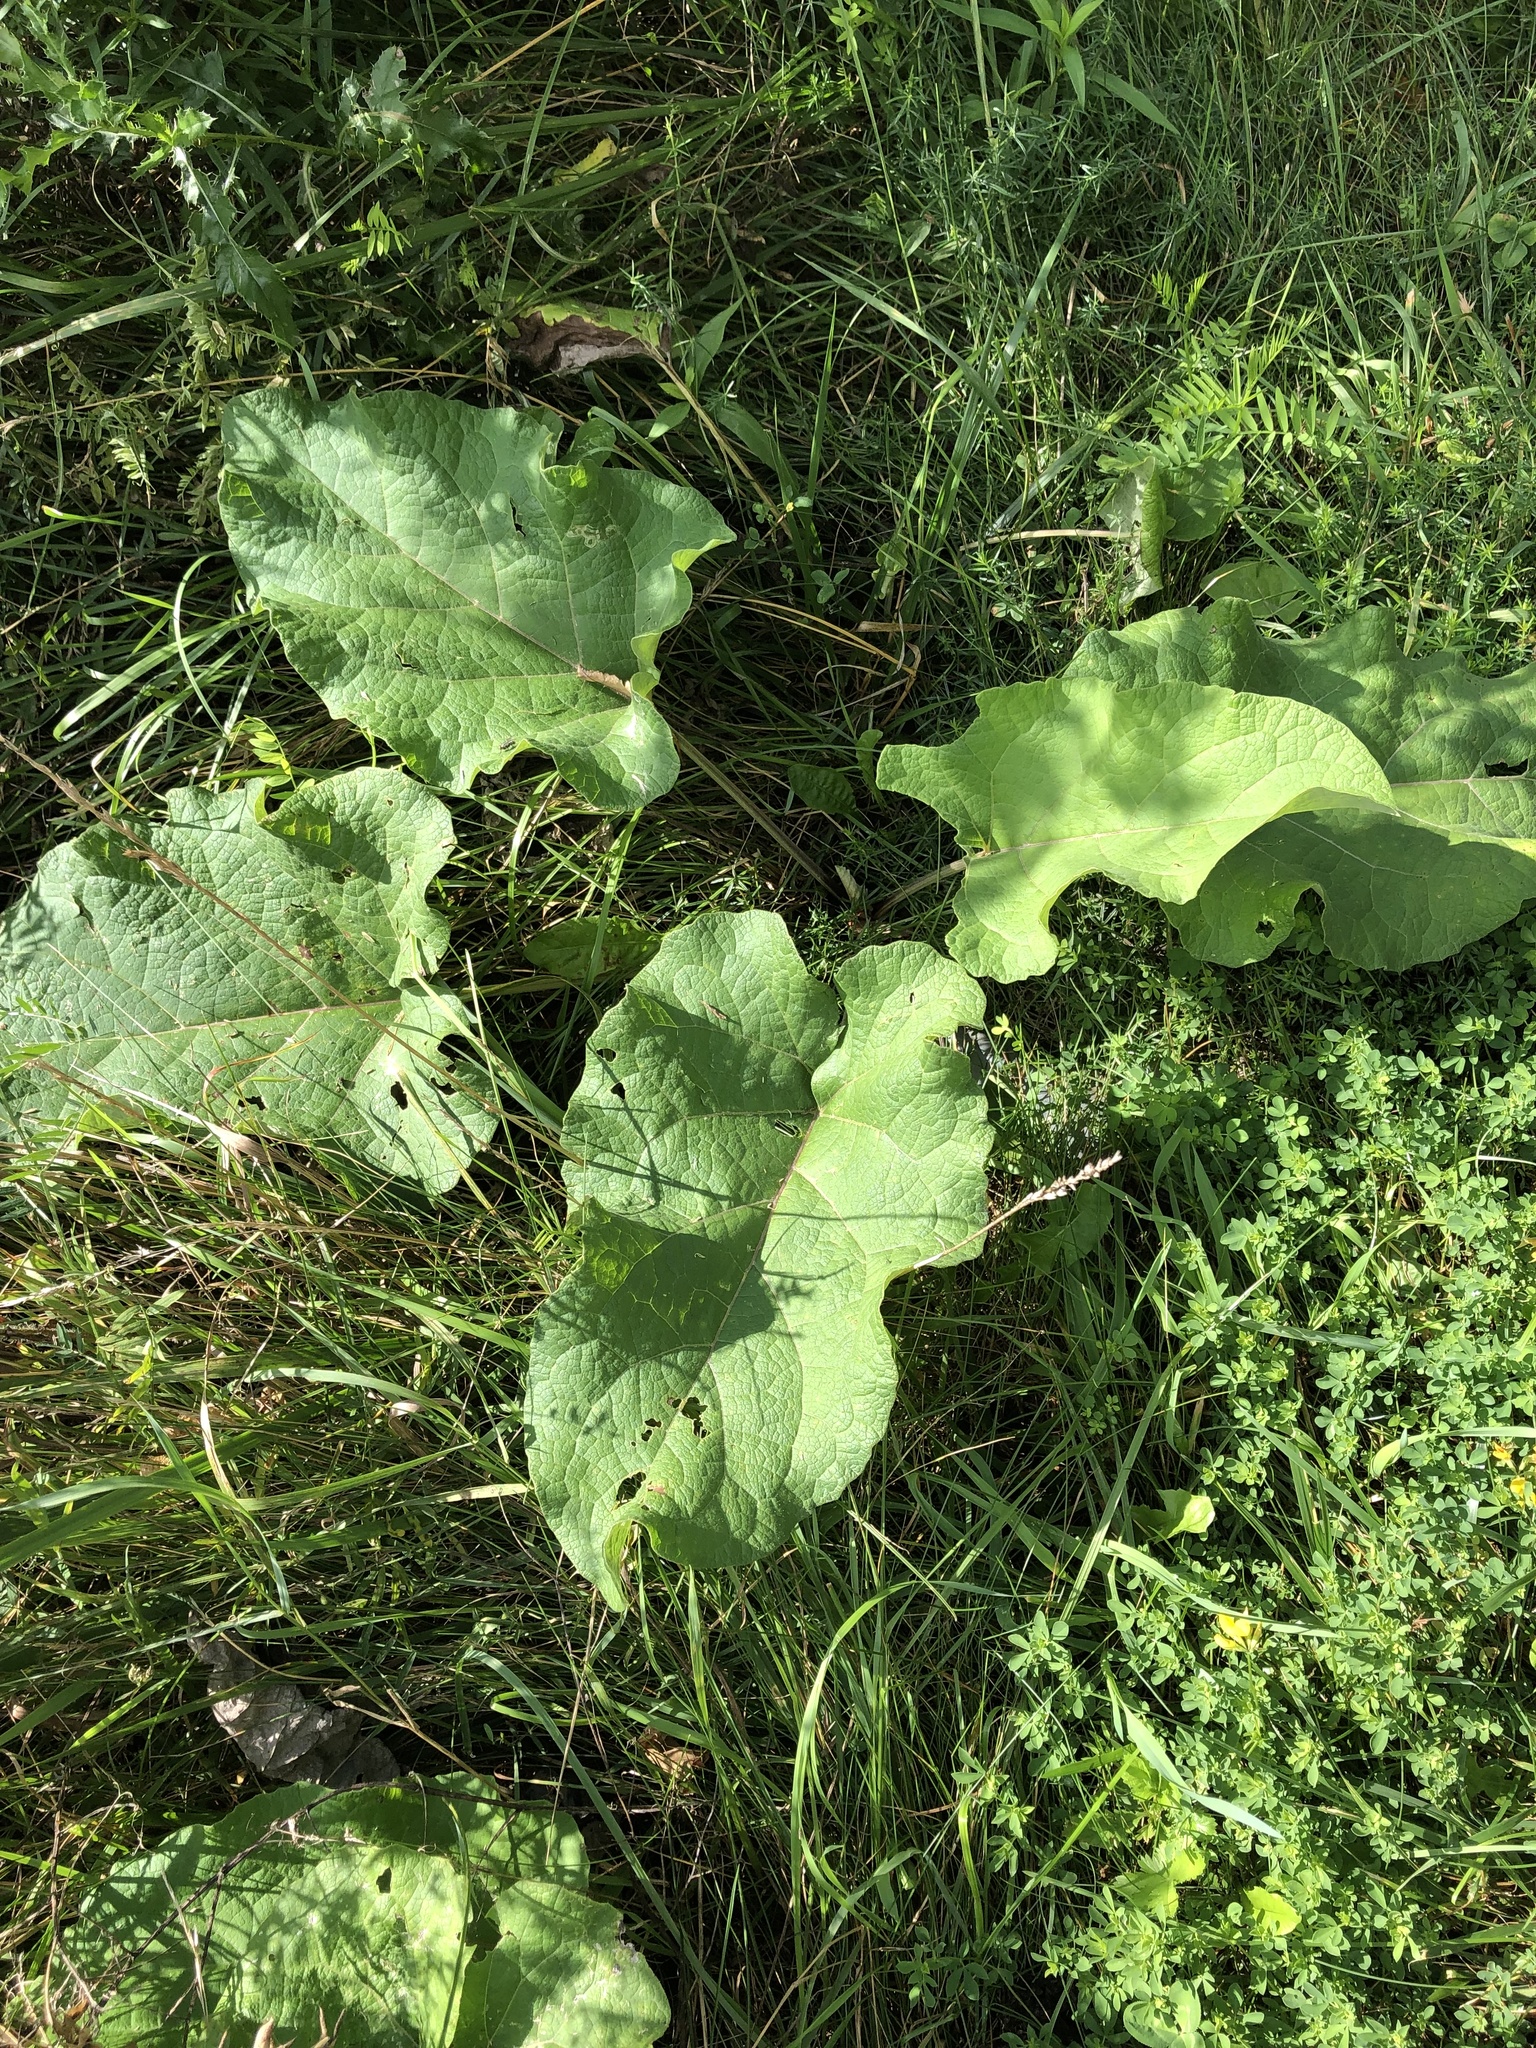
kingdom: Plantae
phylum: Tracheophyta
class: Magnoliopsida
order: Asterales
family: Asteraceae
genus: Arctium
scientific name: Arctium
